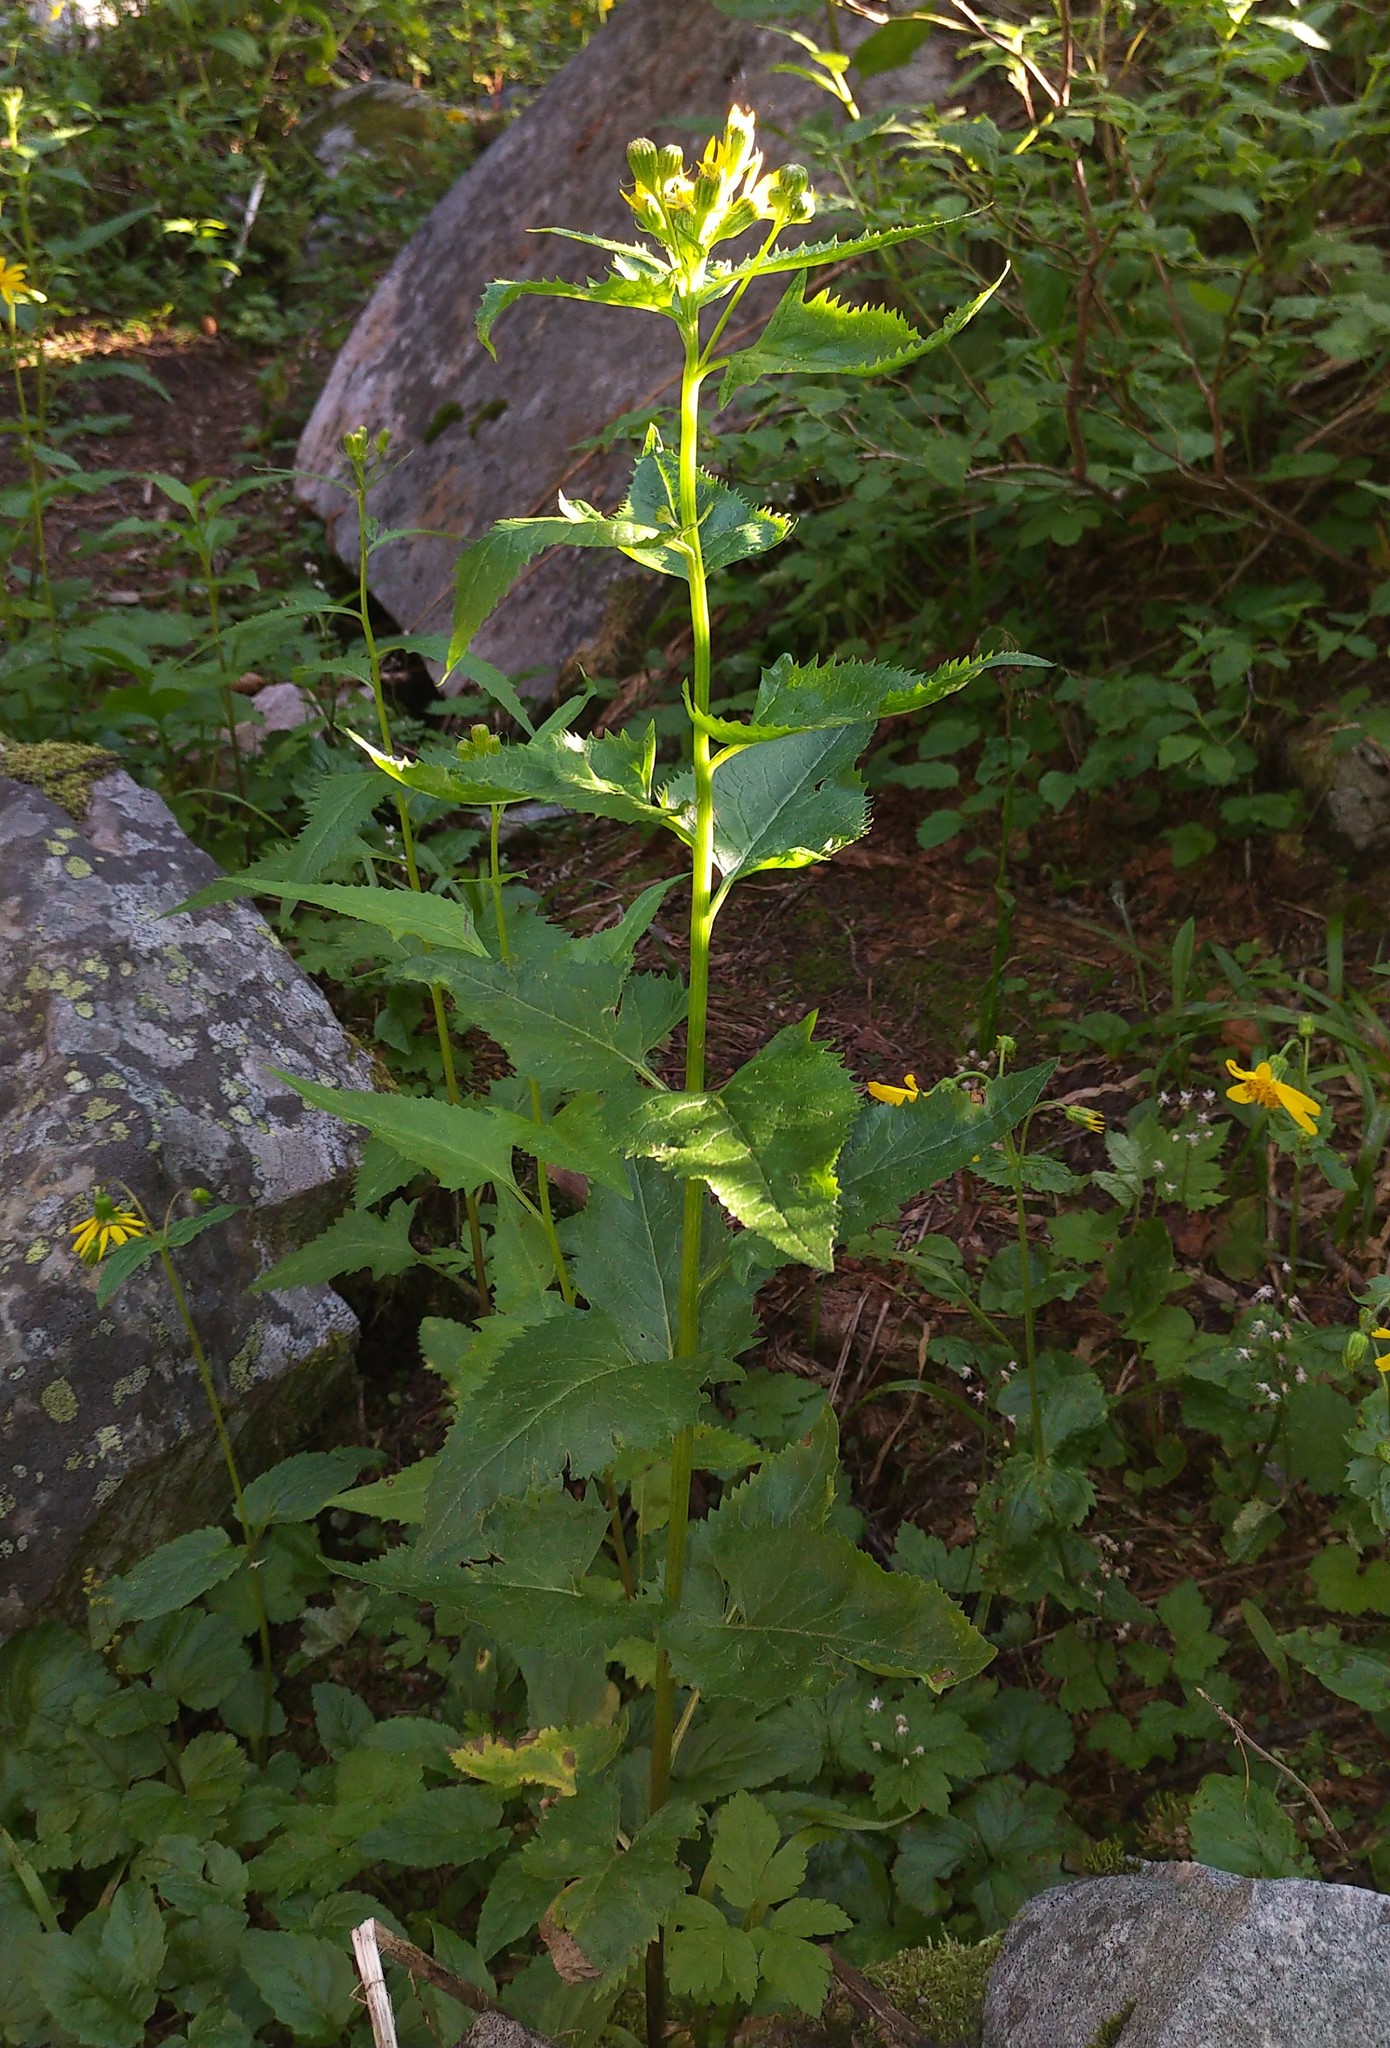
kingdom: Plantae
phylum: Tracheophyta
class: Magnoliopsida
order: Asterales
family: Asteraceae
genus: Senecio
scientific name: Senecio triangularis
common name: Arrowleaf butterweed
